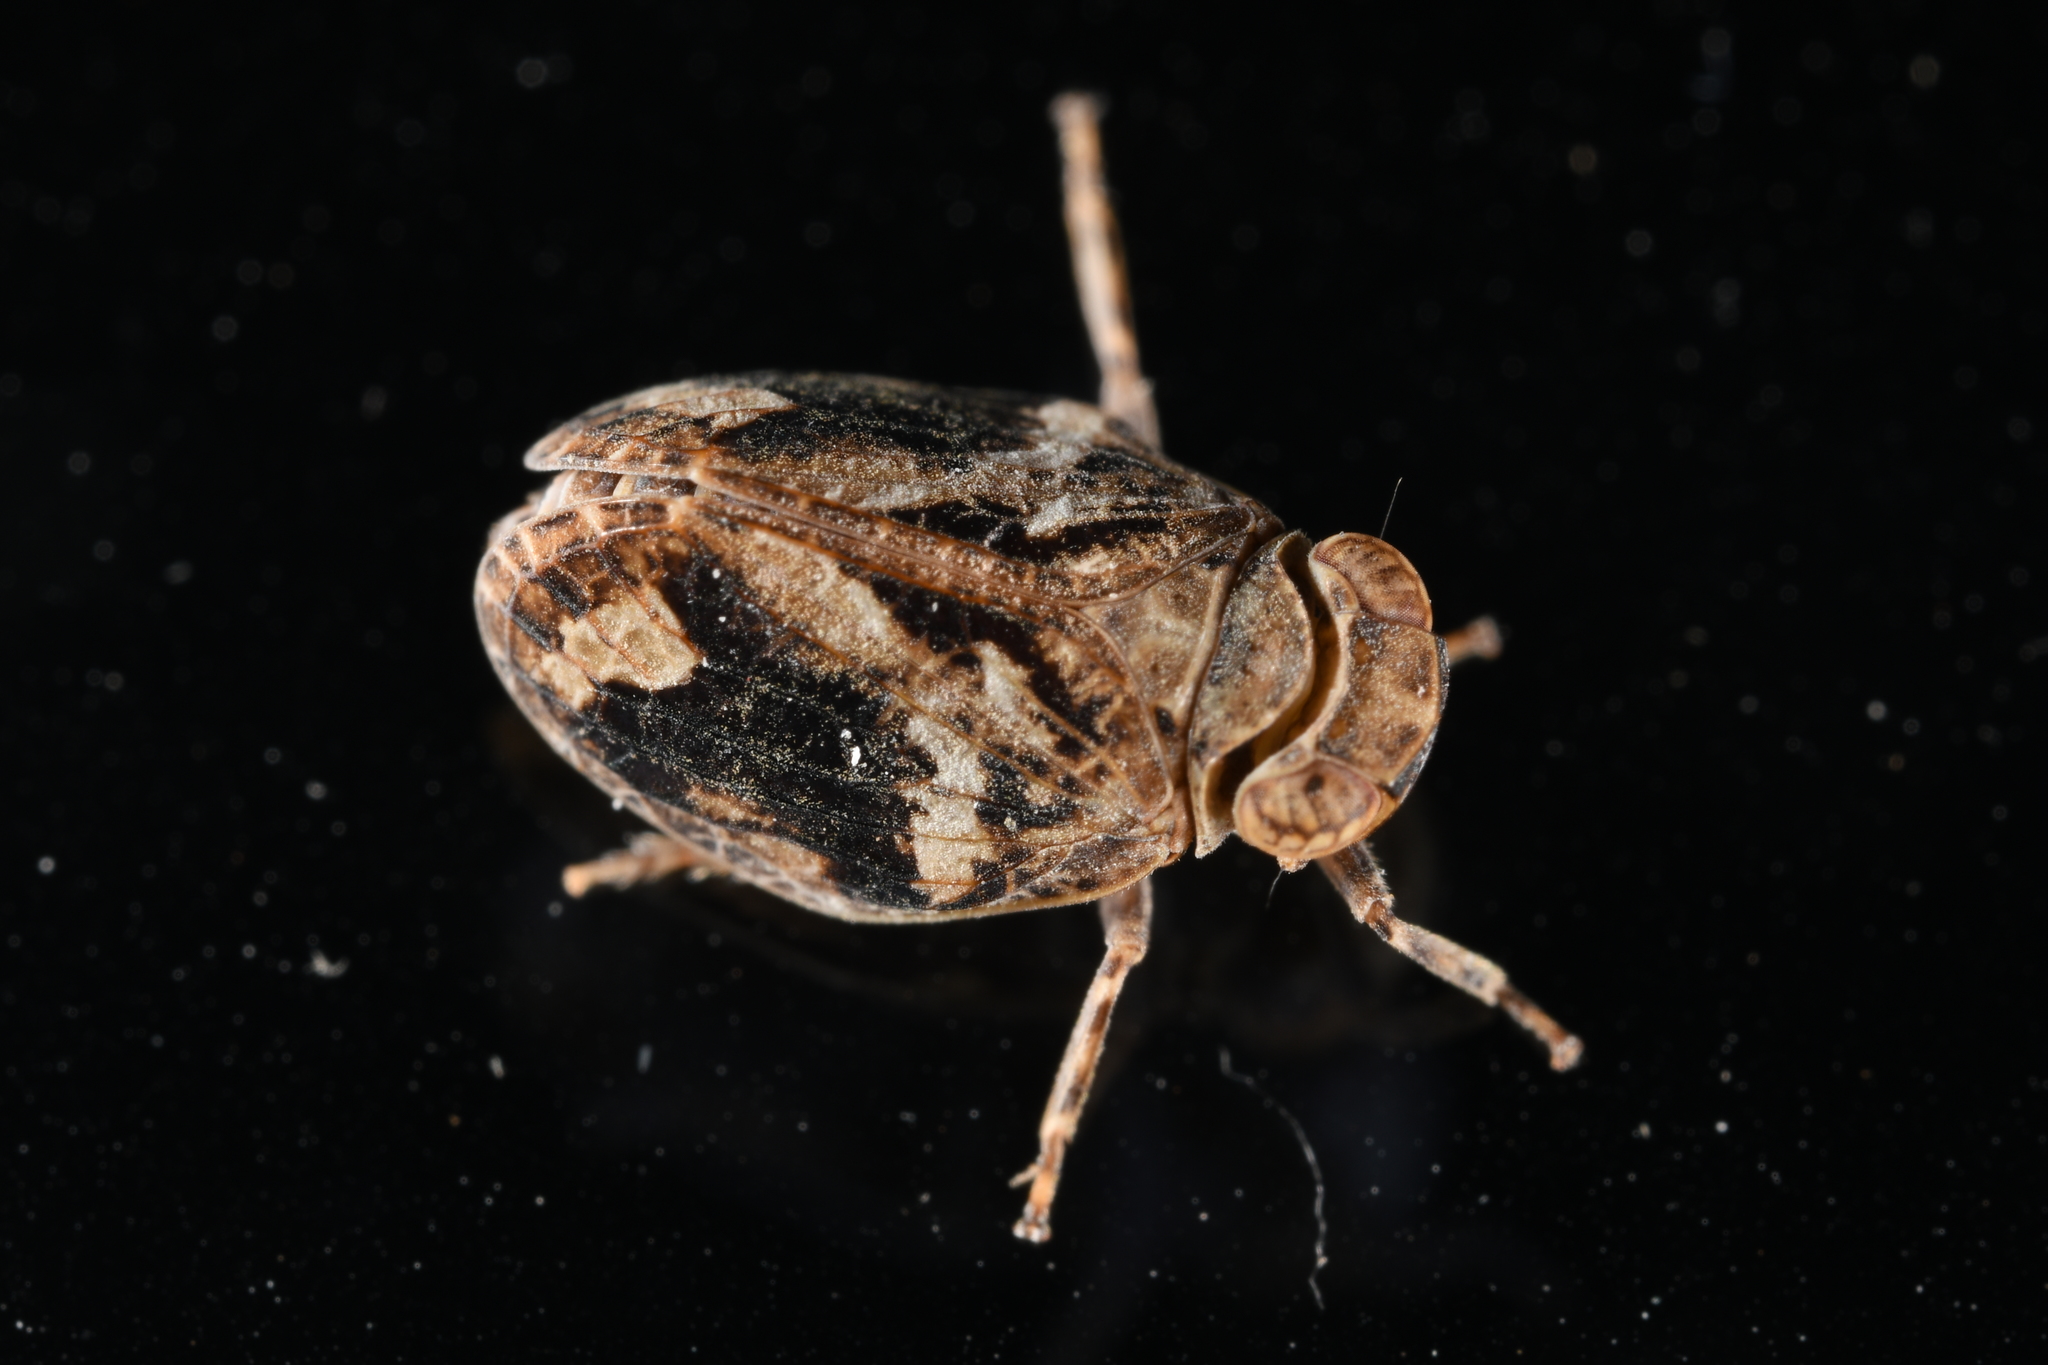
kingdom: Animalia
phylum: Arthropoda
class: Insecta
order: Hemiptera
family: Issidae
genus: Latilica
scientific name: Latilica maculipes
